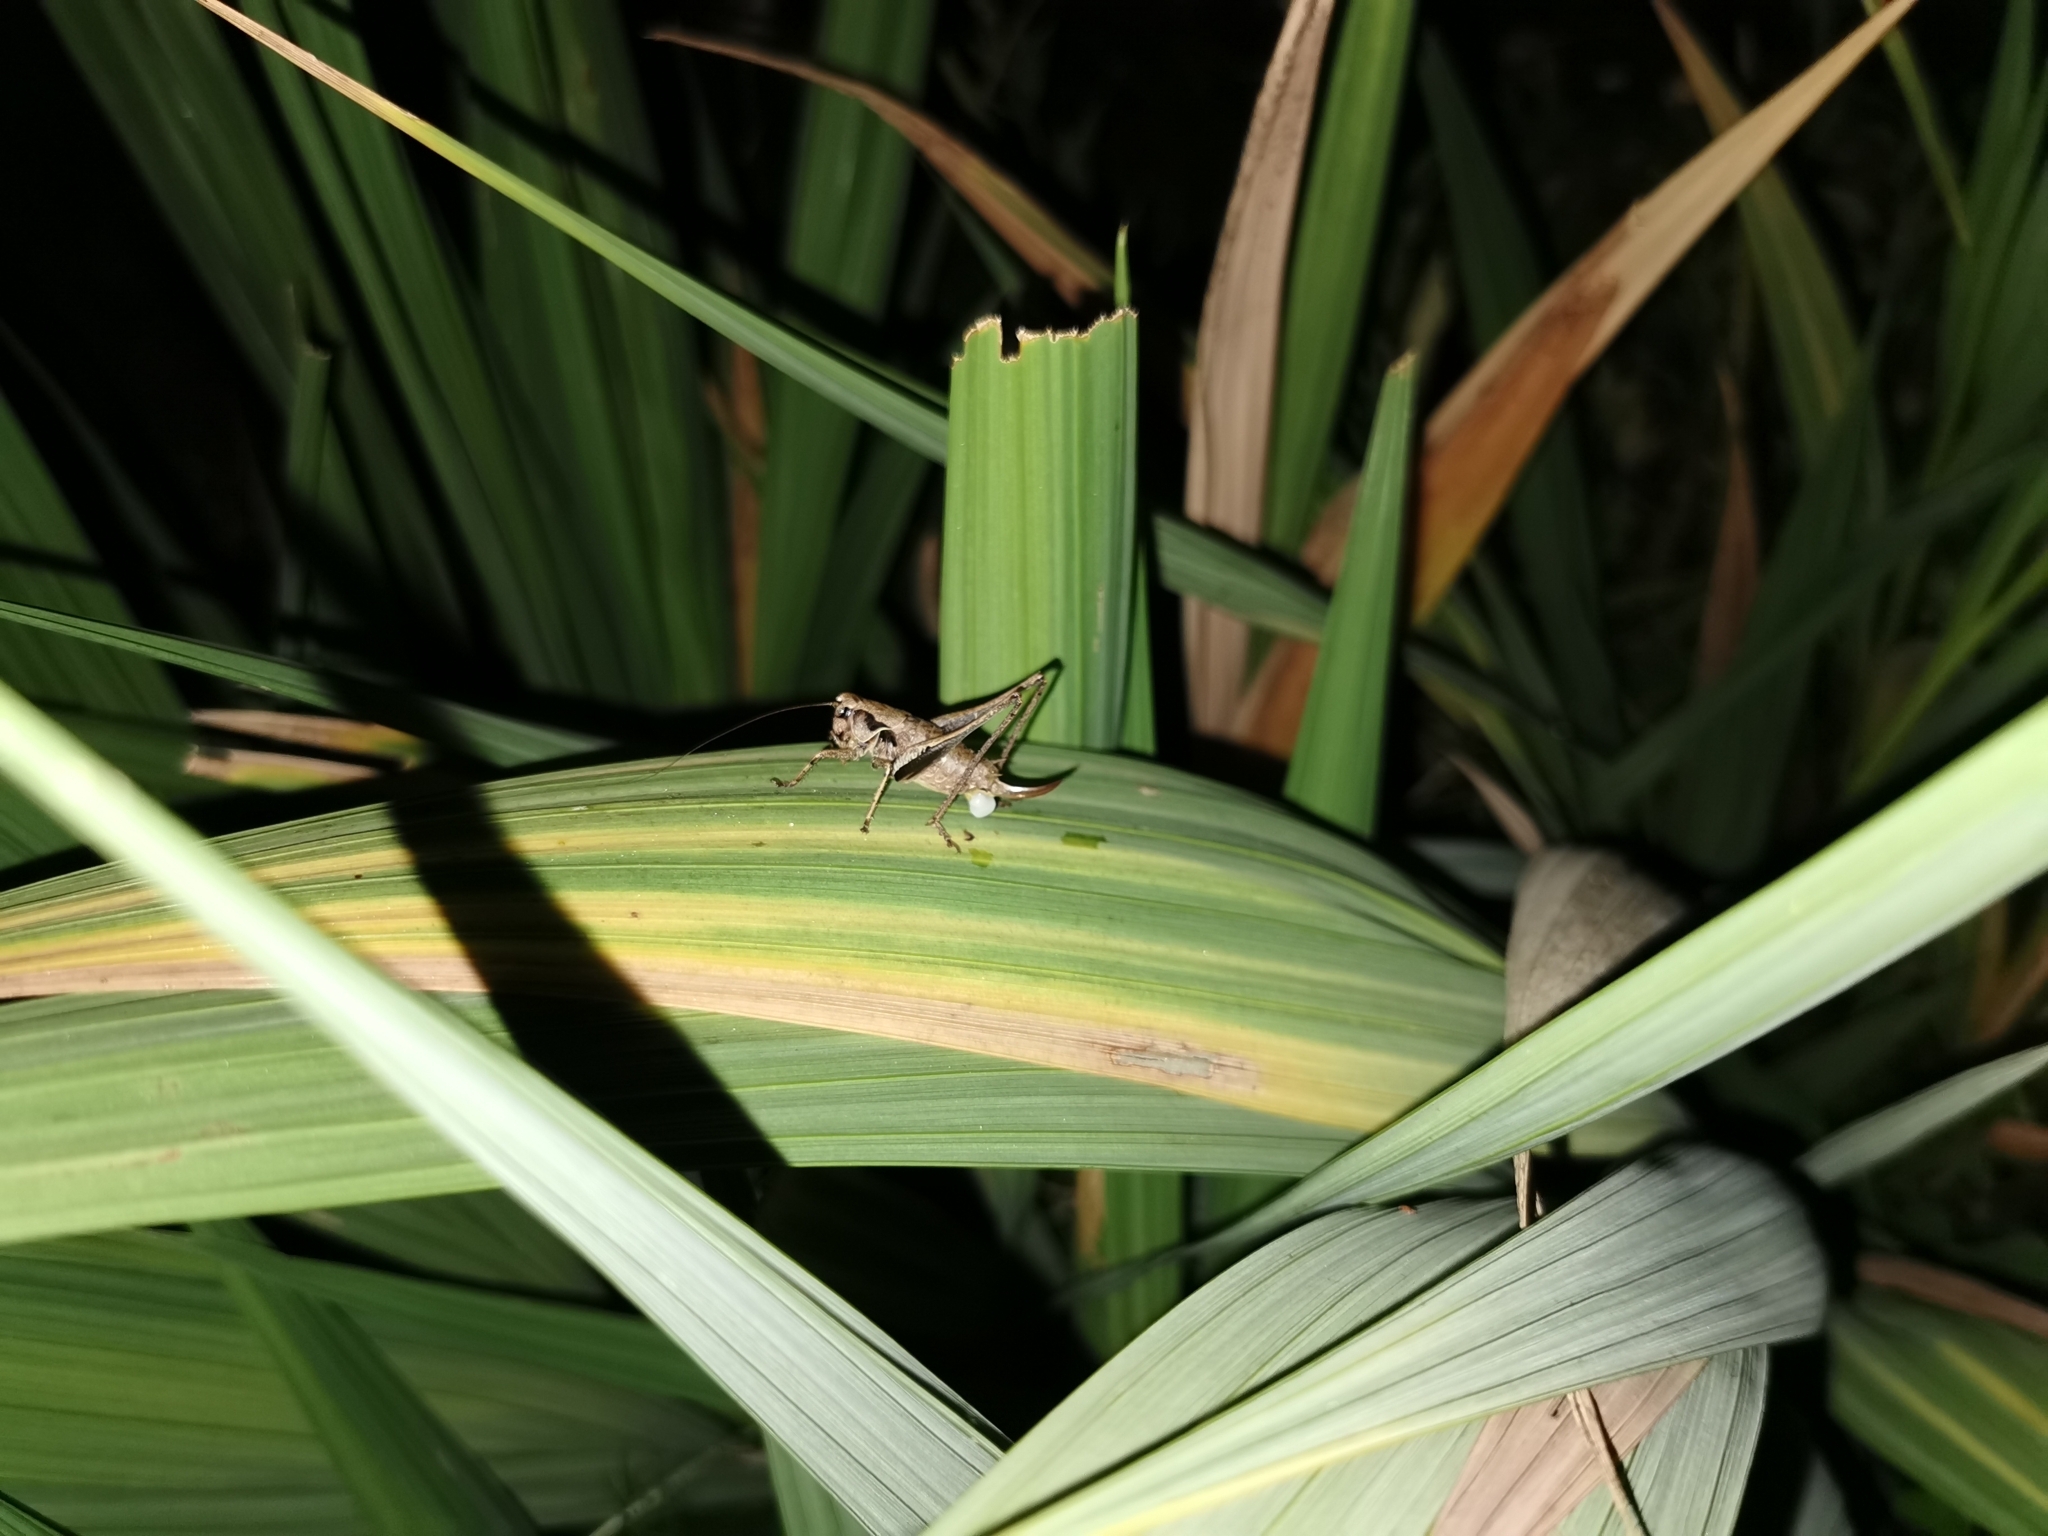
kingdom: Animalia
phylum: Arthropoda
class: Insecta
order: Orthoptera
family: Tettigoniidae
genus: Pholidoptera
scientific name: Pholidoptera griseoaptera
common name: Dark bush-cricket
